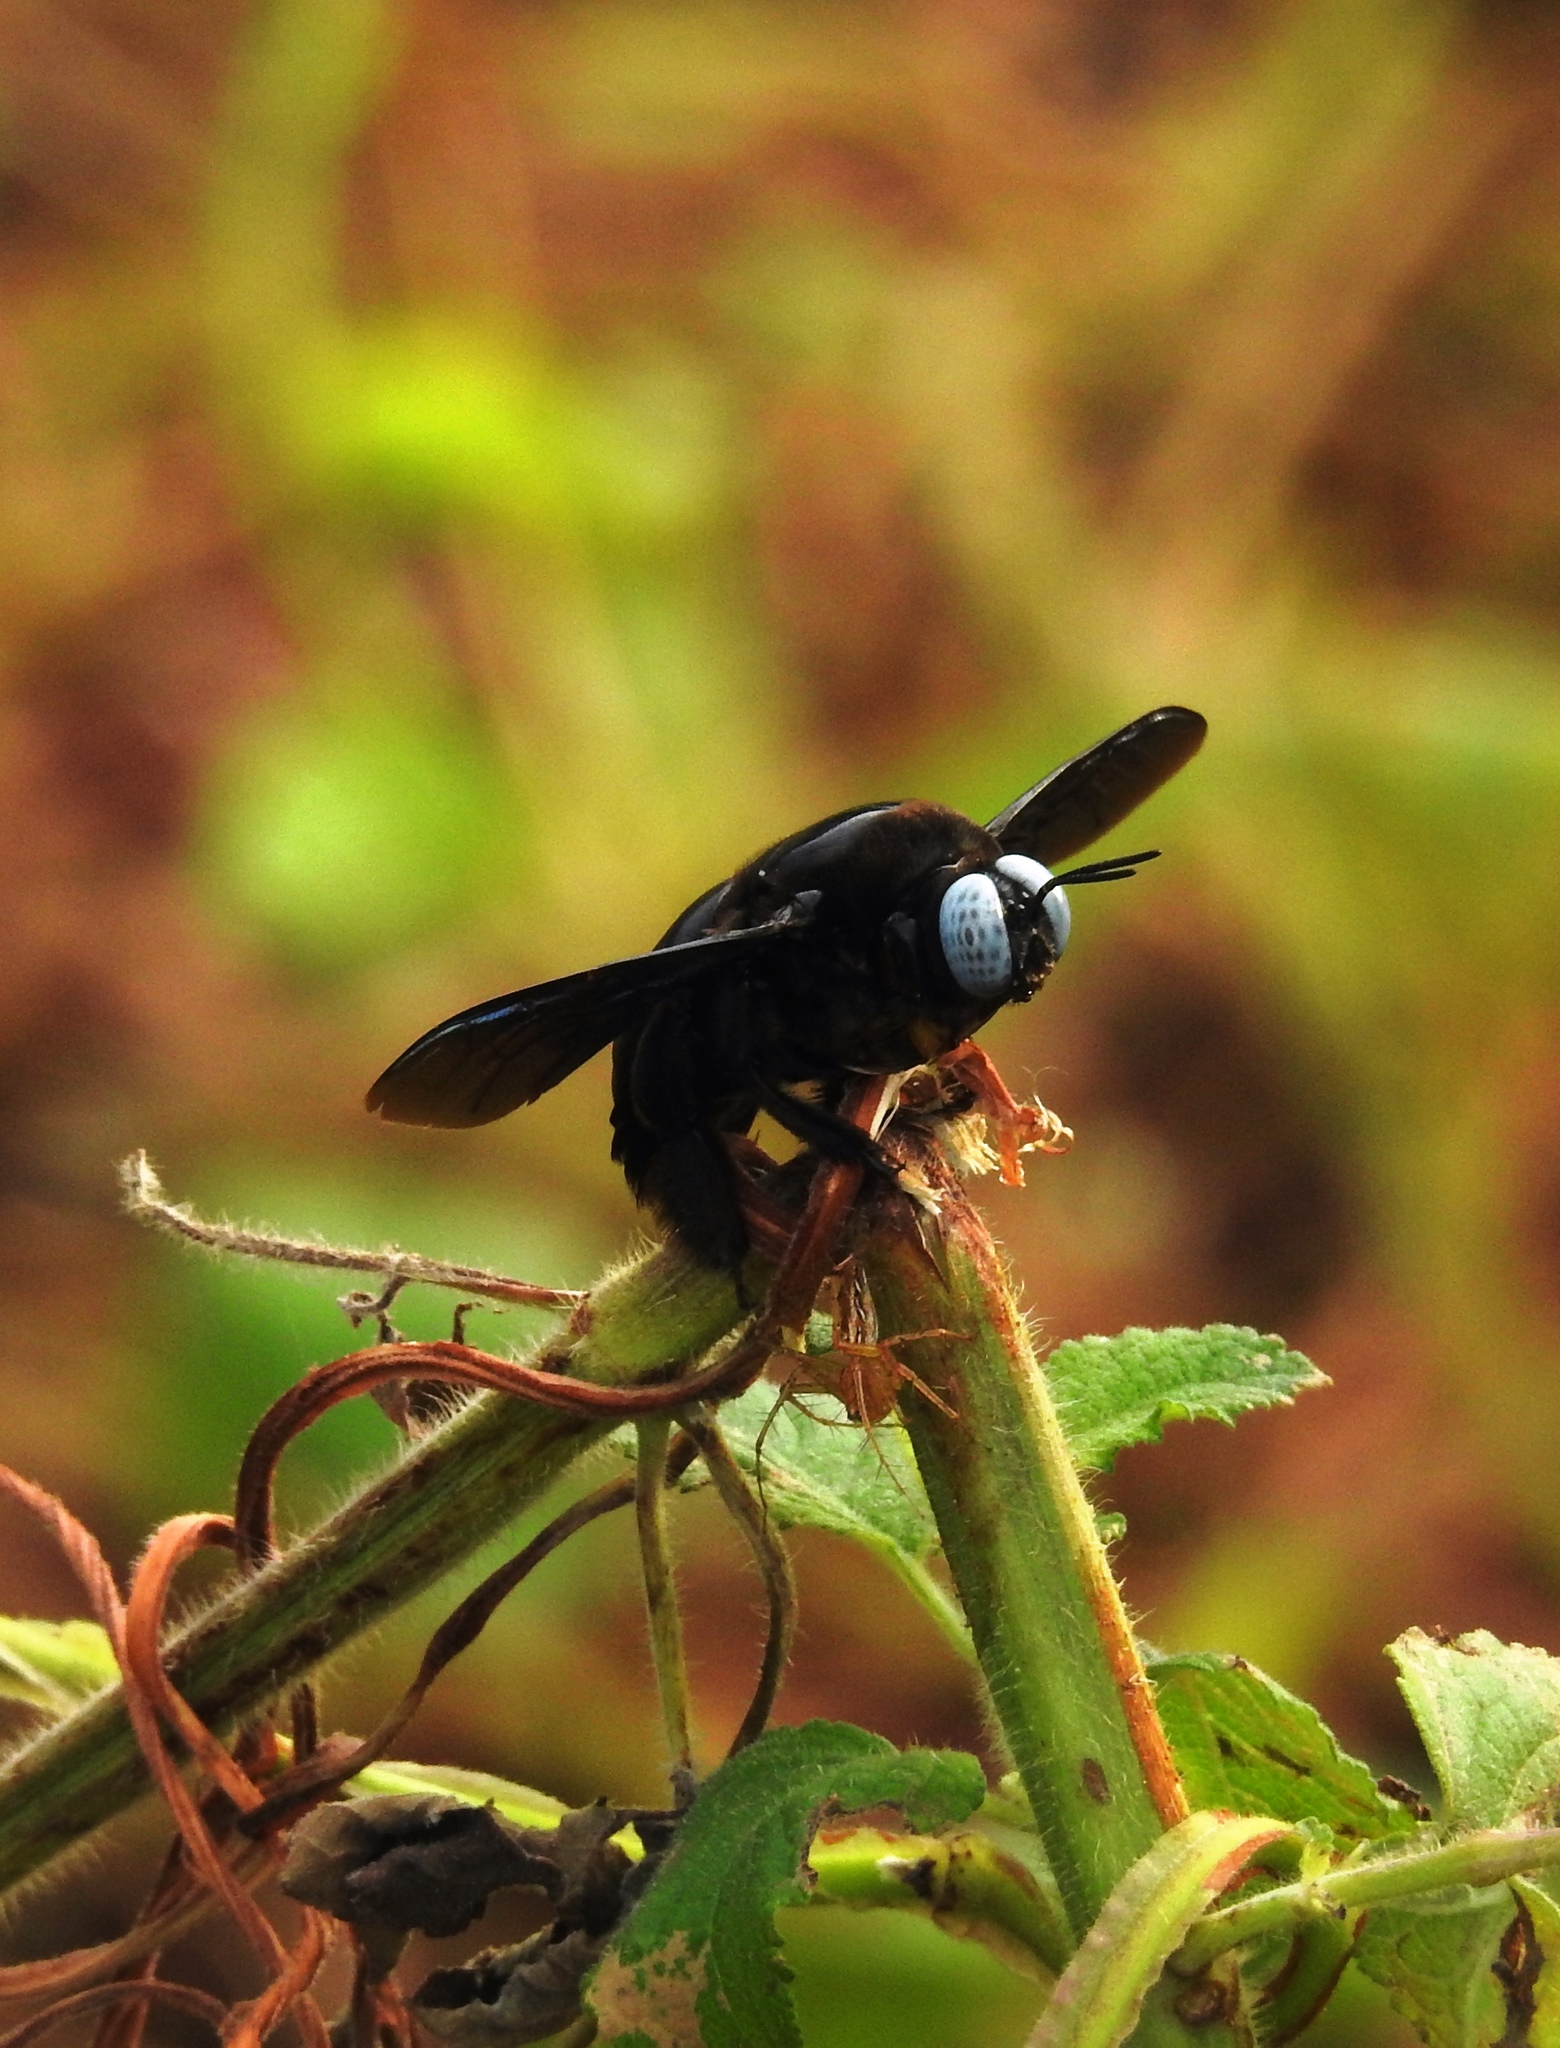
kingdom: Animalia
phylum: Arthropoda
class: Insecta
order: Hymenoptera
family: Apidae
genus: Xylocopa
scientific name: Xylocopa tenuiscapa
